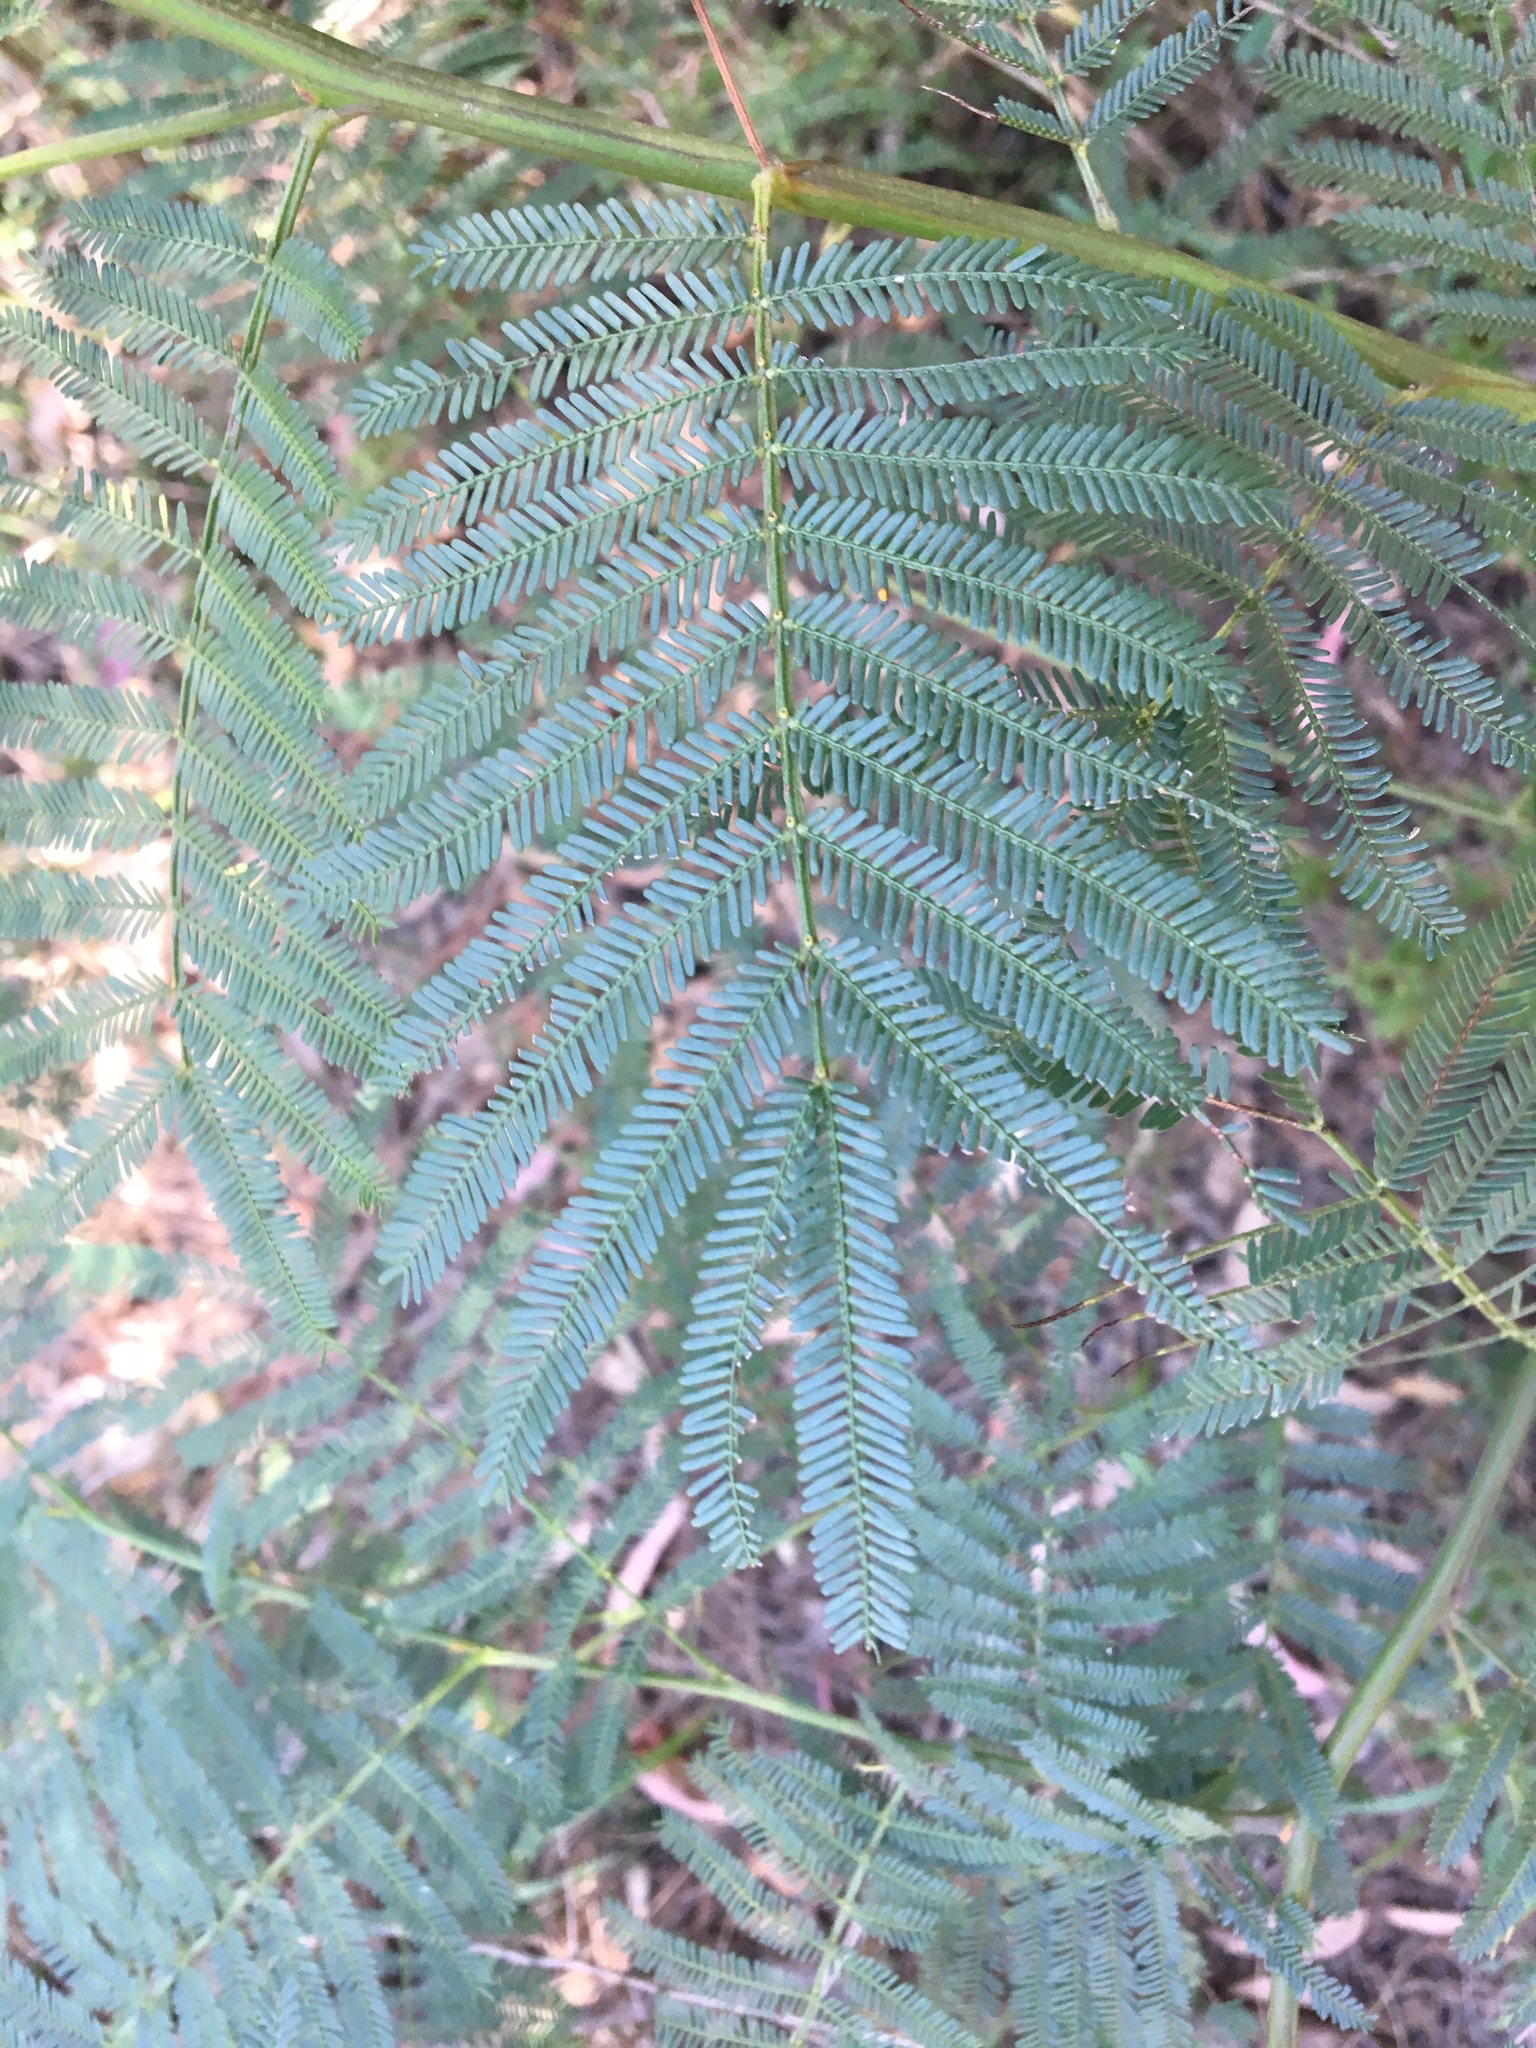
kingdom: Plantae
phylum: Tracheophyta
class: Magnoliopsida
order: Fabales
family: Fabaceae
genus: Acacia
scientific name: Acacia parramattensis
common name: Sydney green wattle
